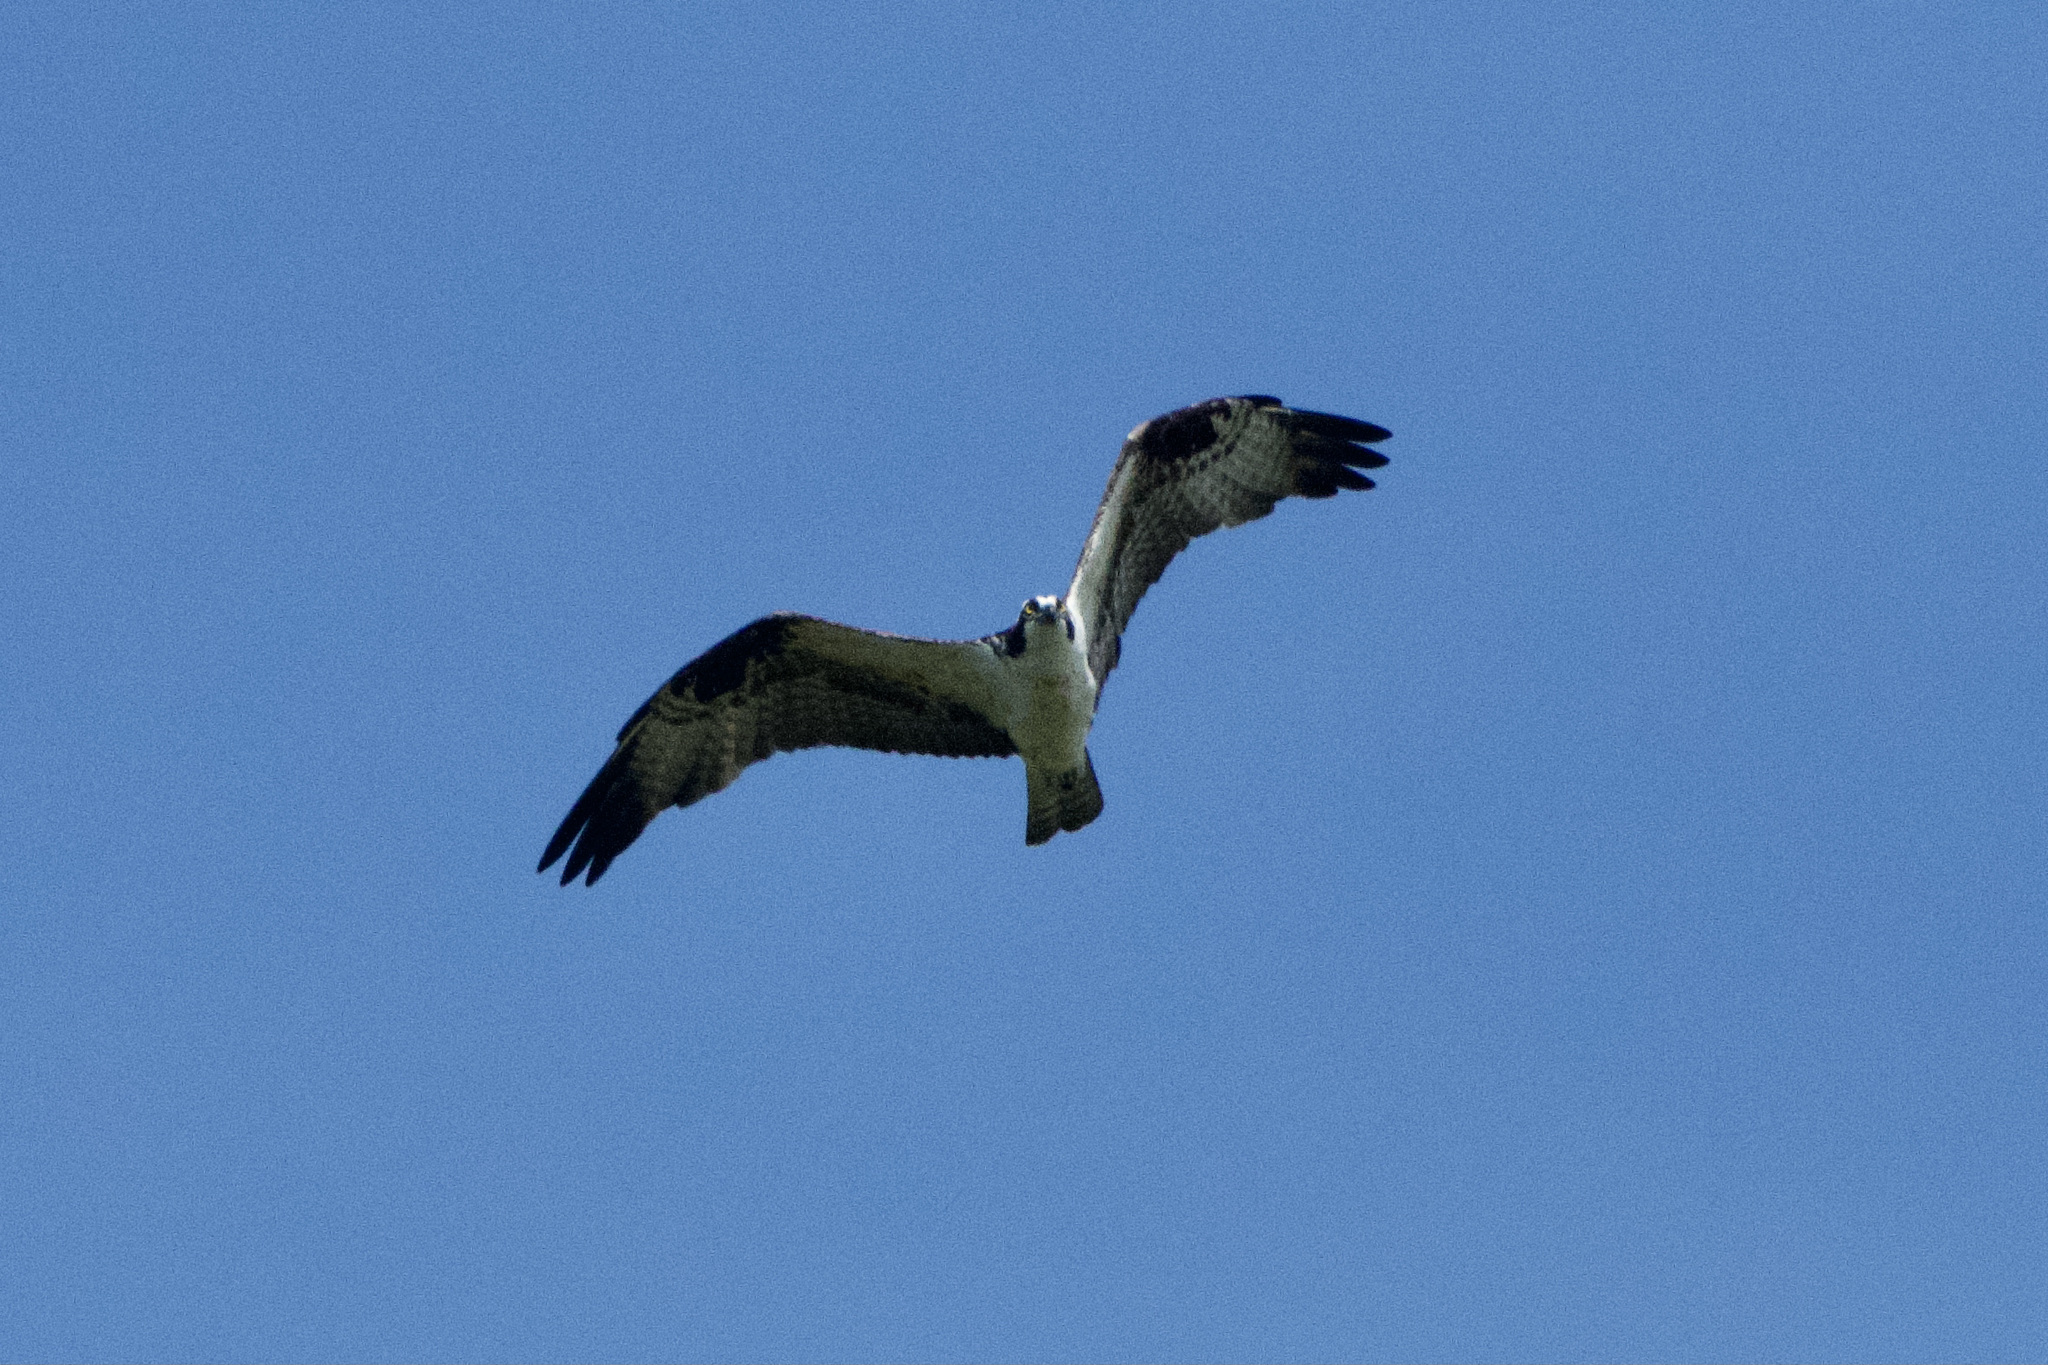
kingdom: Animalia
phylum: Chordata
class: Aves
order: Accipitriformes
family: Pandionidae
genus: Pandion
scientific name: Pandion haliaetus
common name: Osprey
